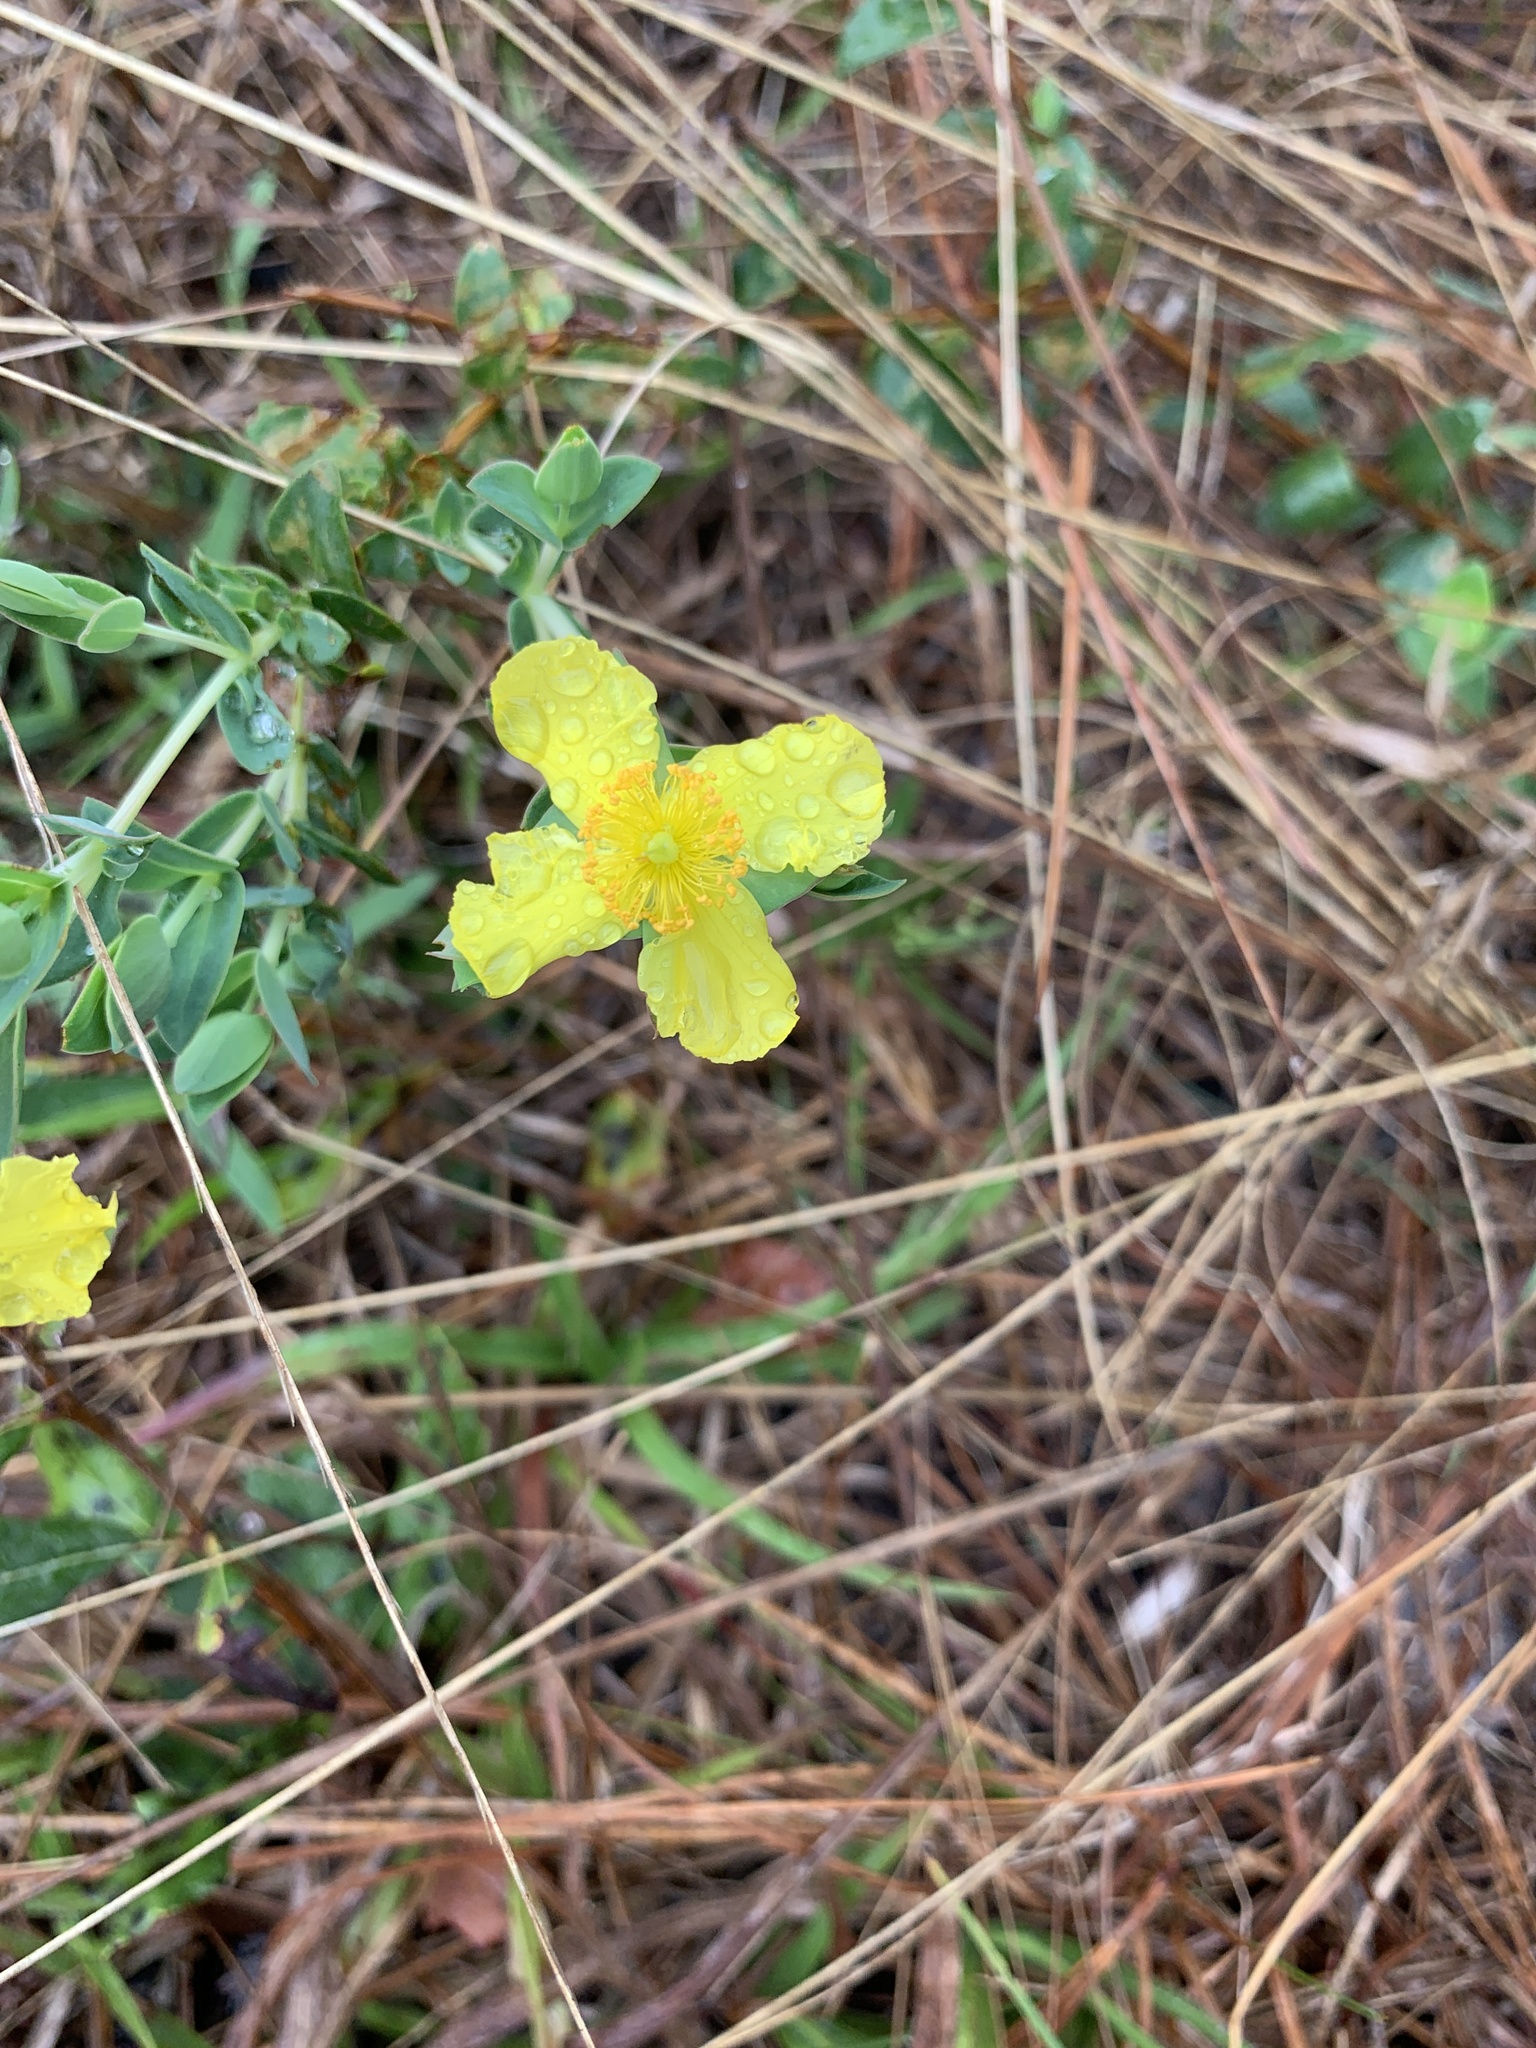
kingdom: Plantae
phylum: Tracheophyta
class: Magnoliopsida
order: Malpighiales
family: Hypericaceae
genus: Hypericum
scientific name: Hypericum tetrapetalum
